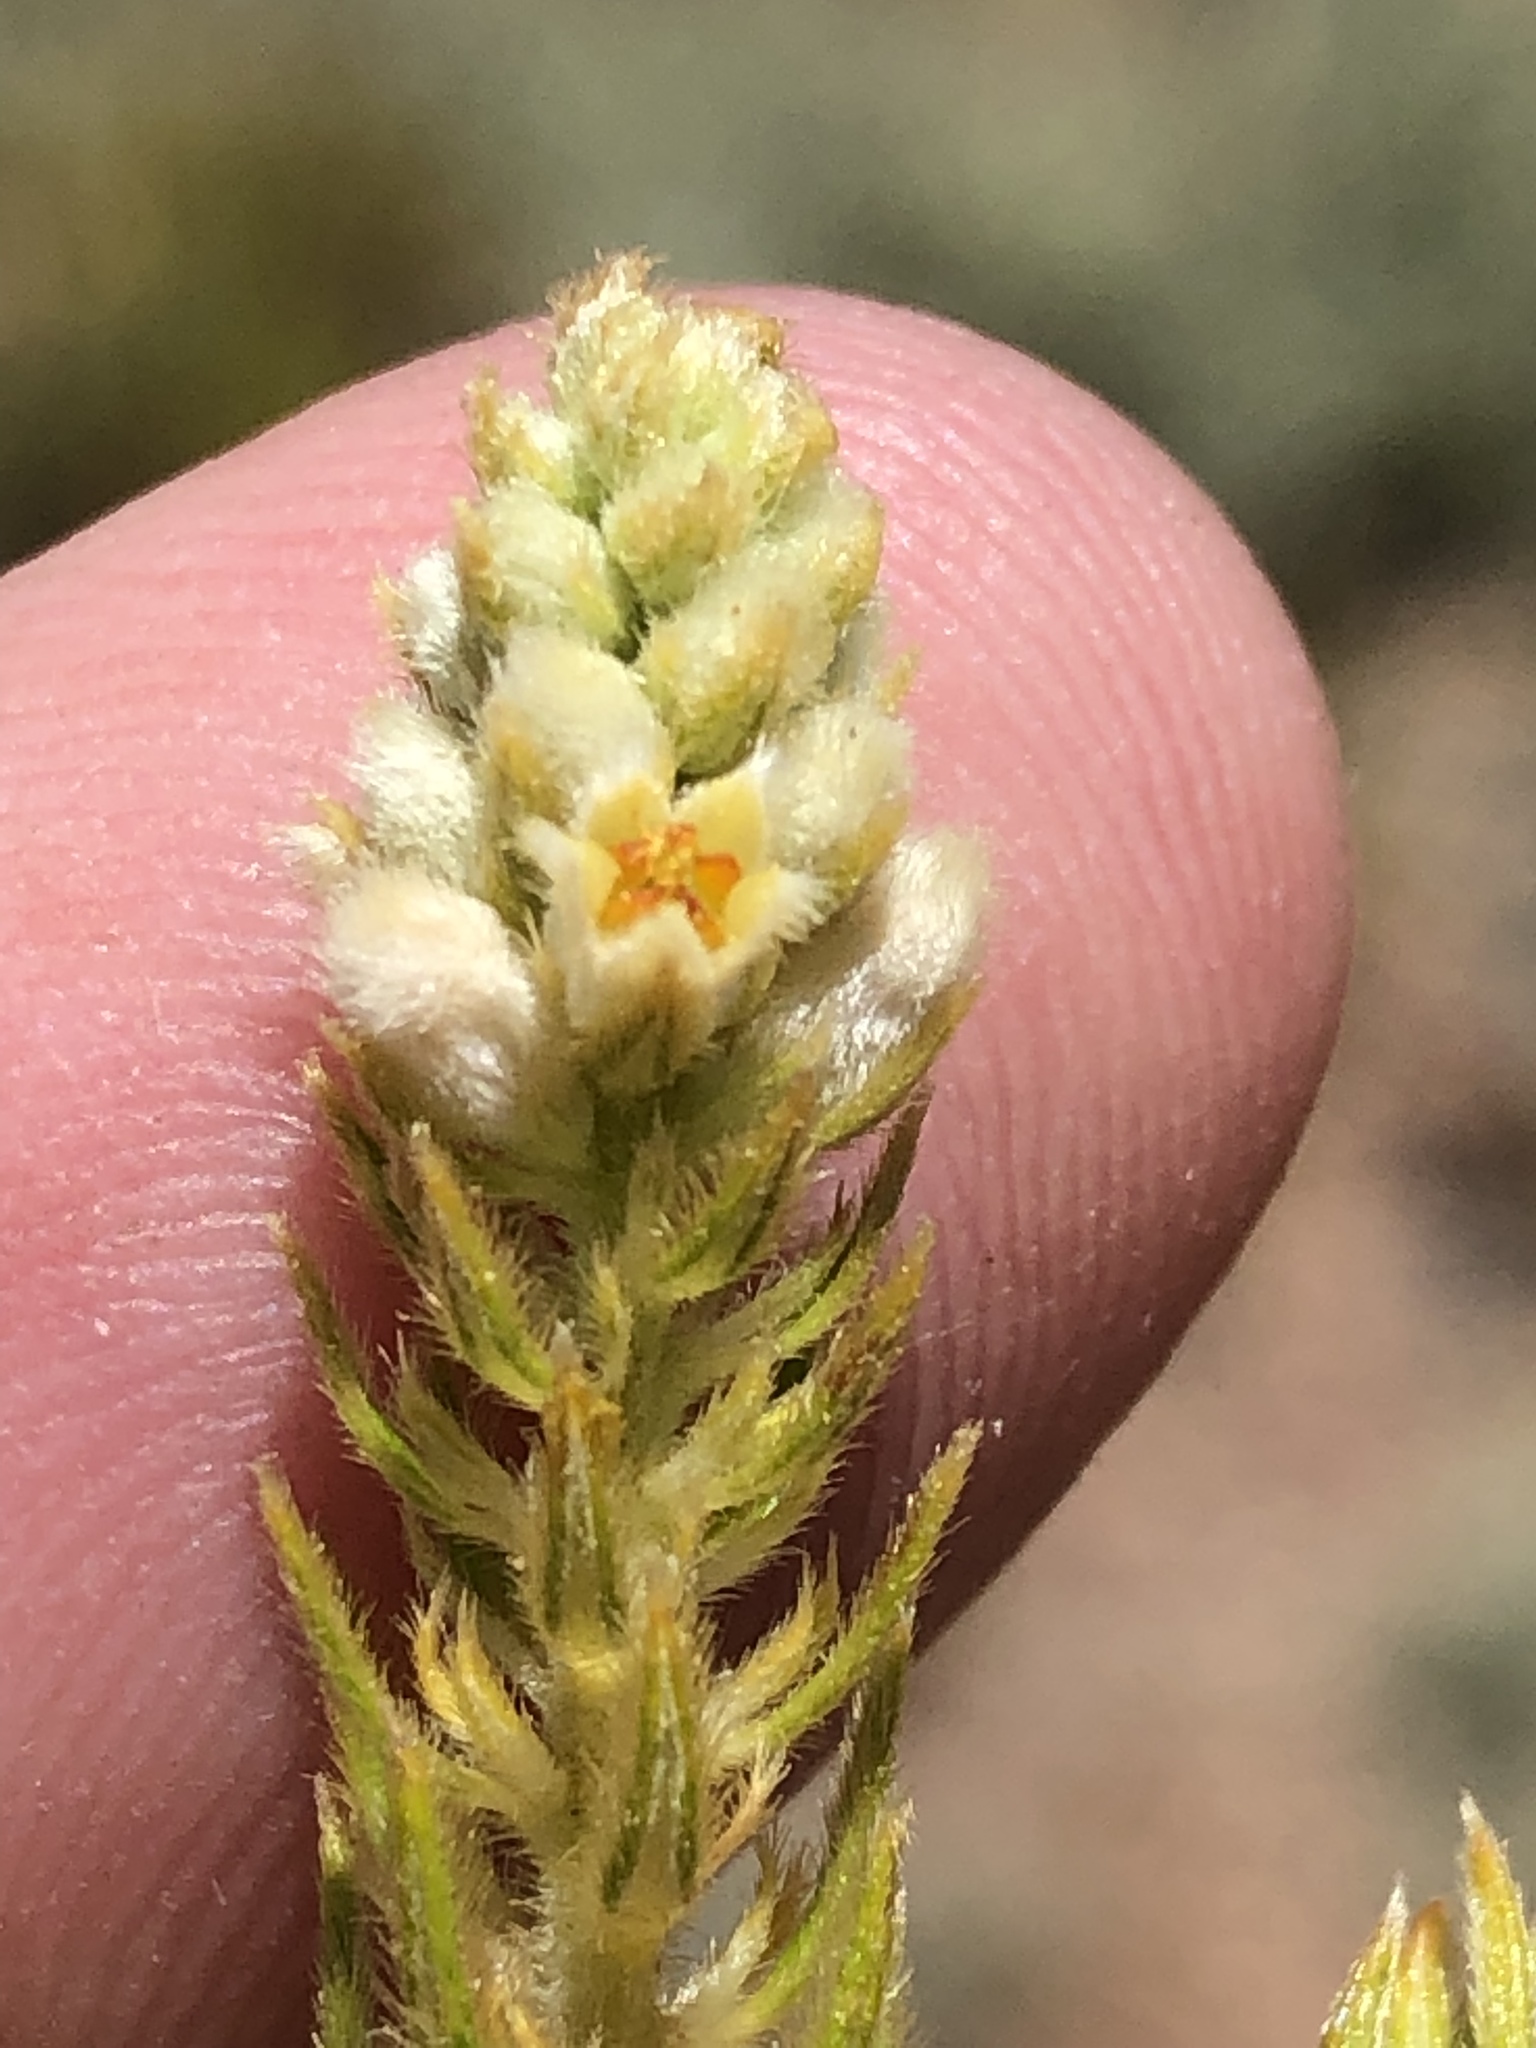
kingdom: Plantae
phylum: Tracheophyta
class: Magnoliopsida
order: Rosales
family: Rhamnaceae
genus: Phylica
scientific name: Phylica excelsa
